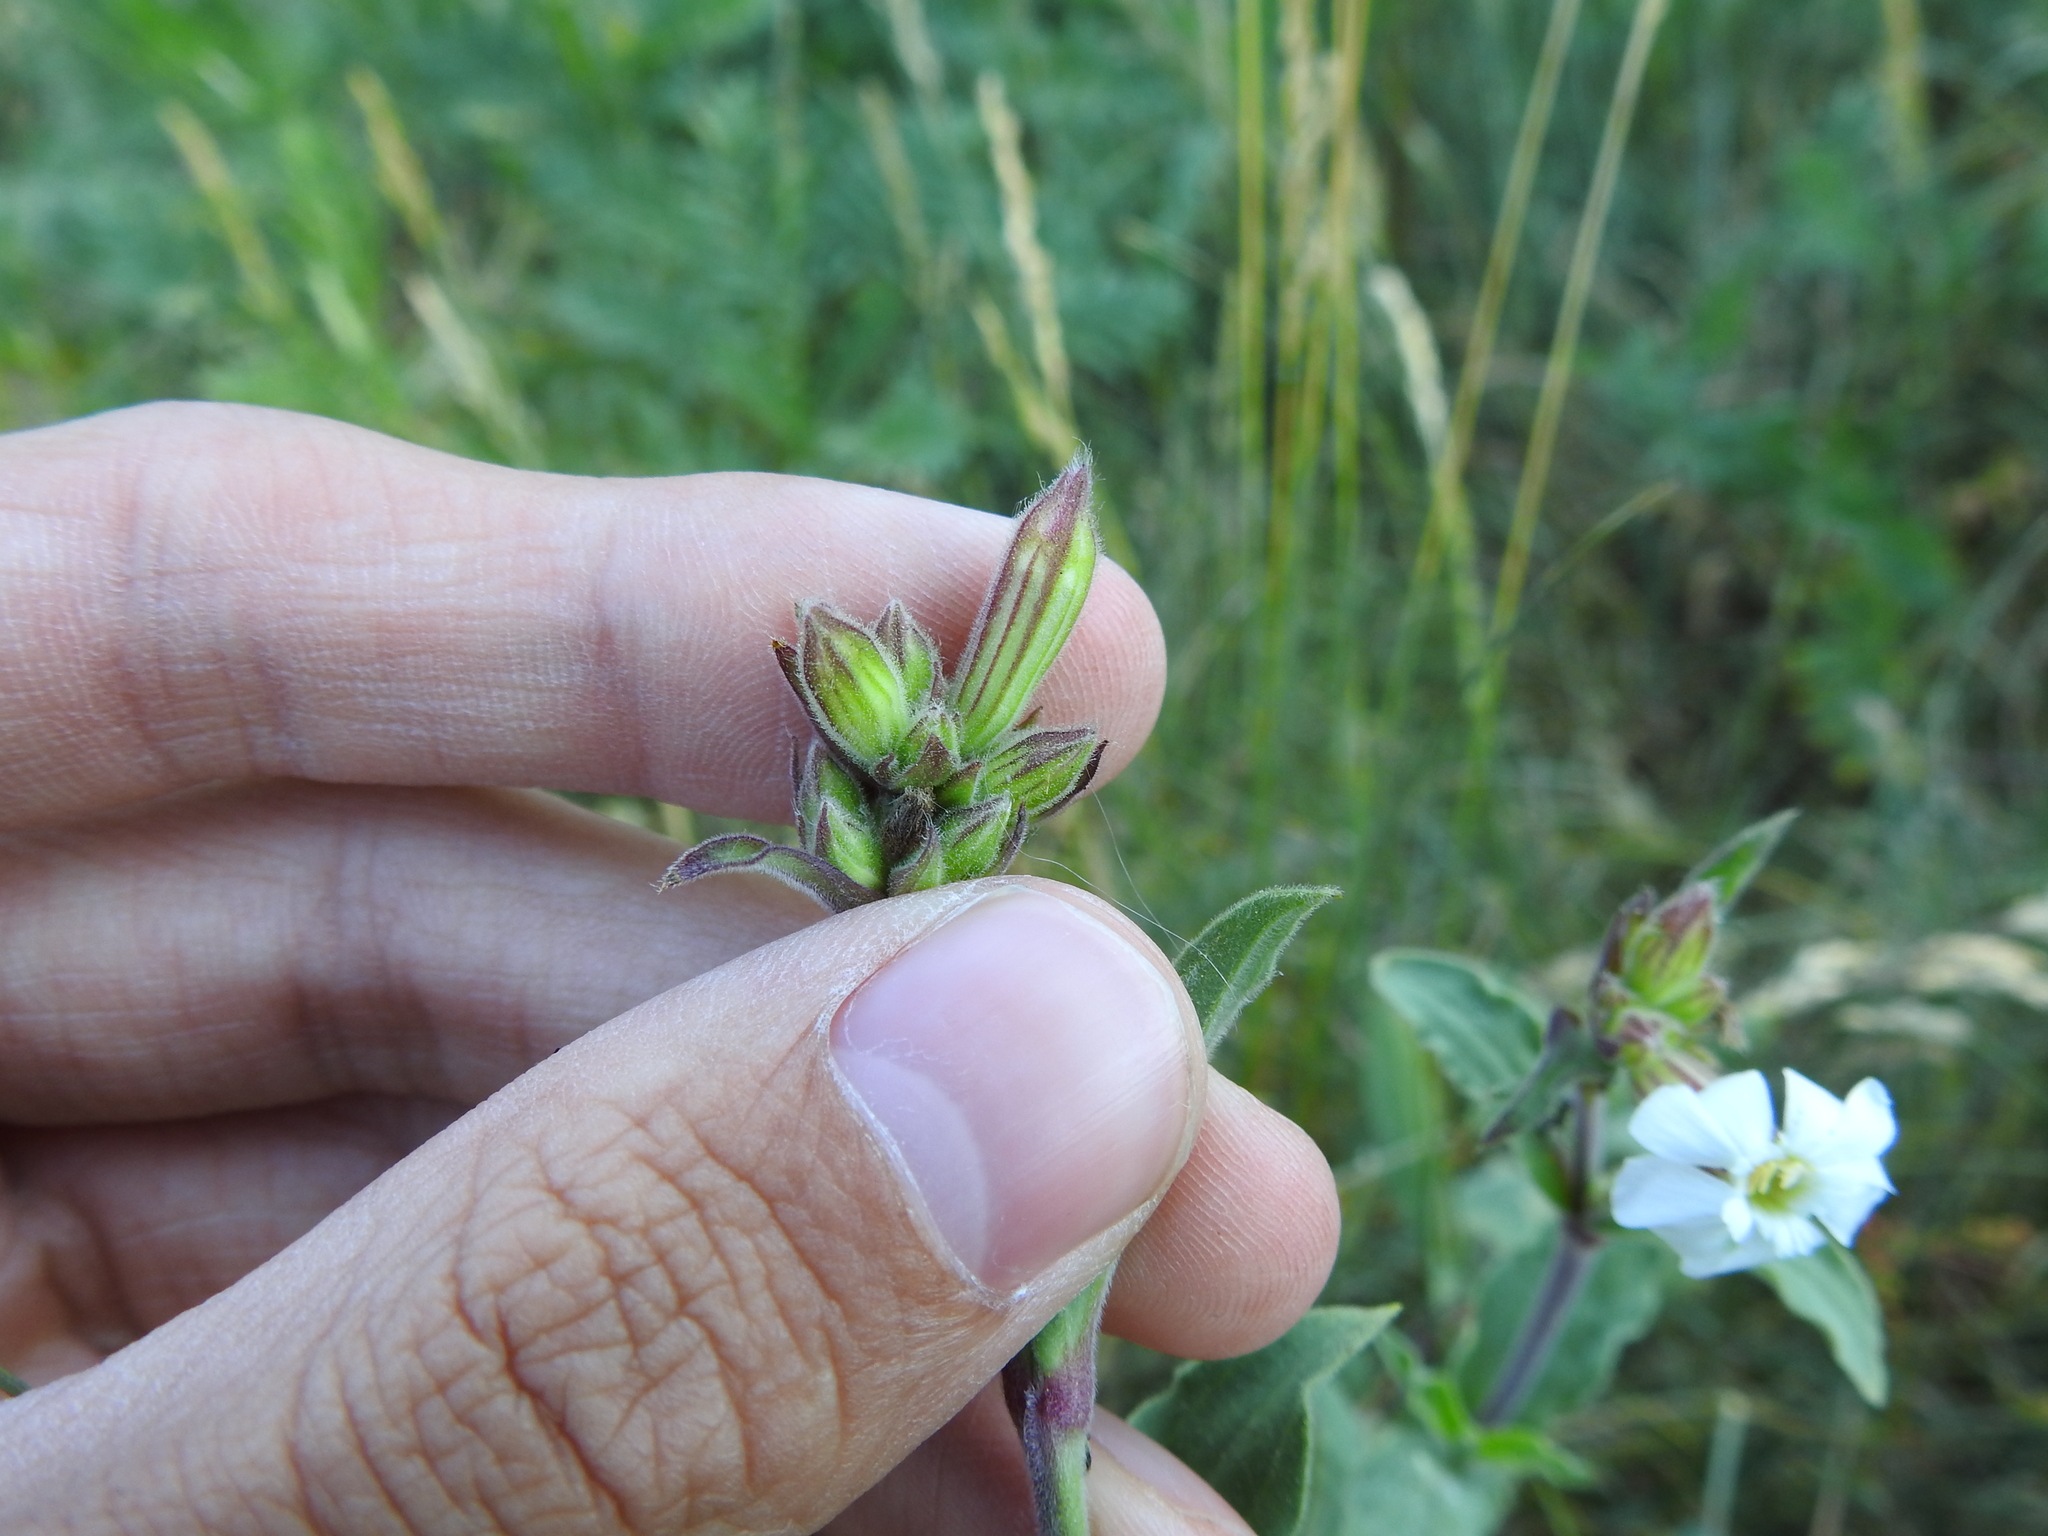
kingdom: Plantae
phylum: Tracheophyta
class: Magnoliopsida
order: Caryophyllales
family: Caryophyllaceae
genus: Silene
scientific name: Silene latifolia
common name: White campion
